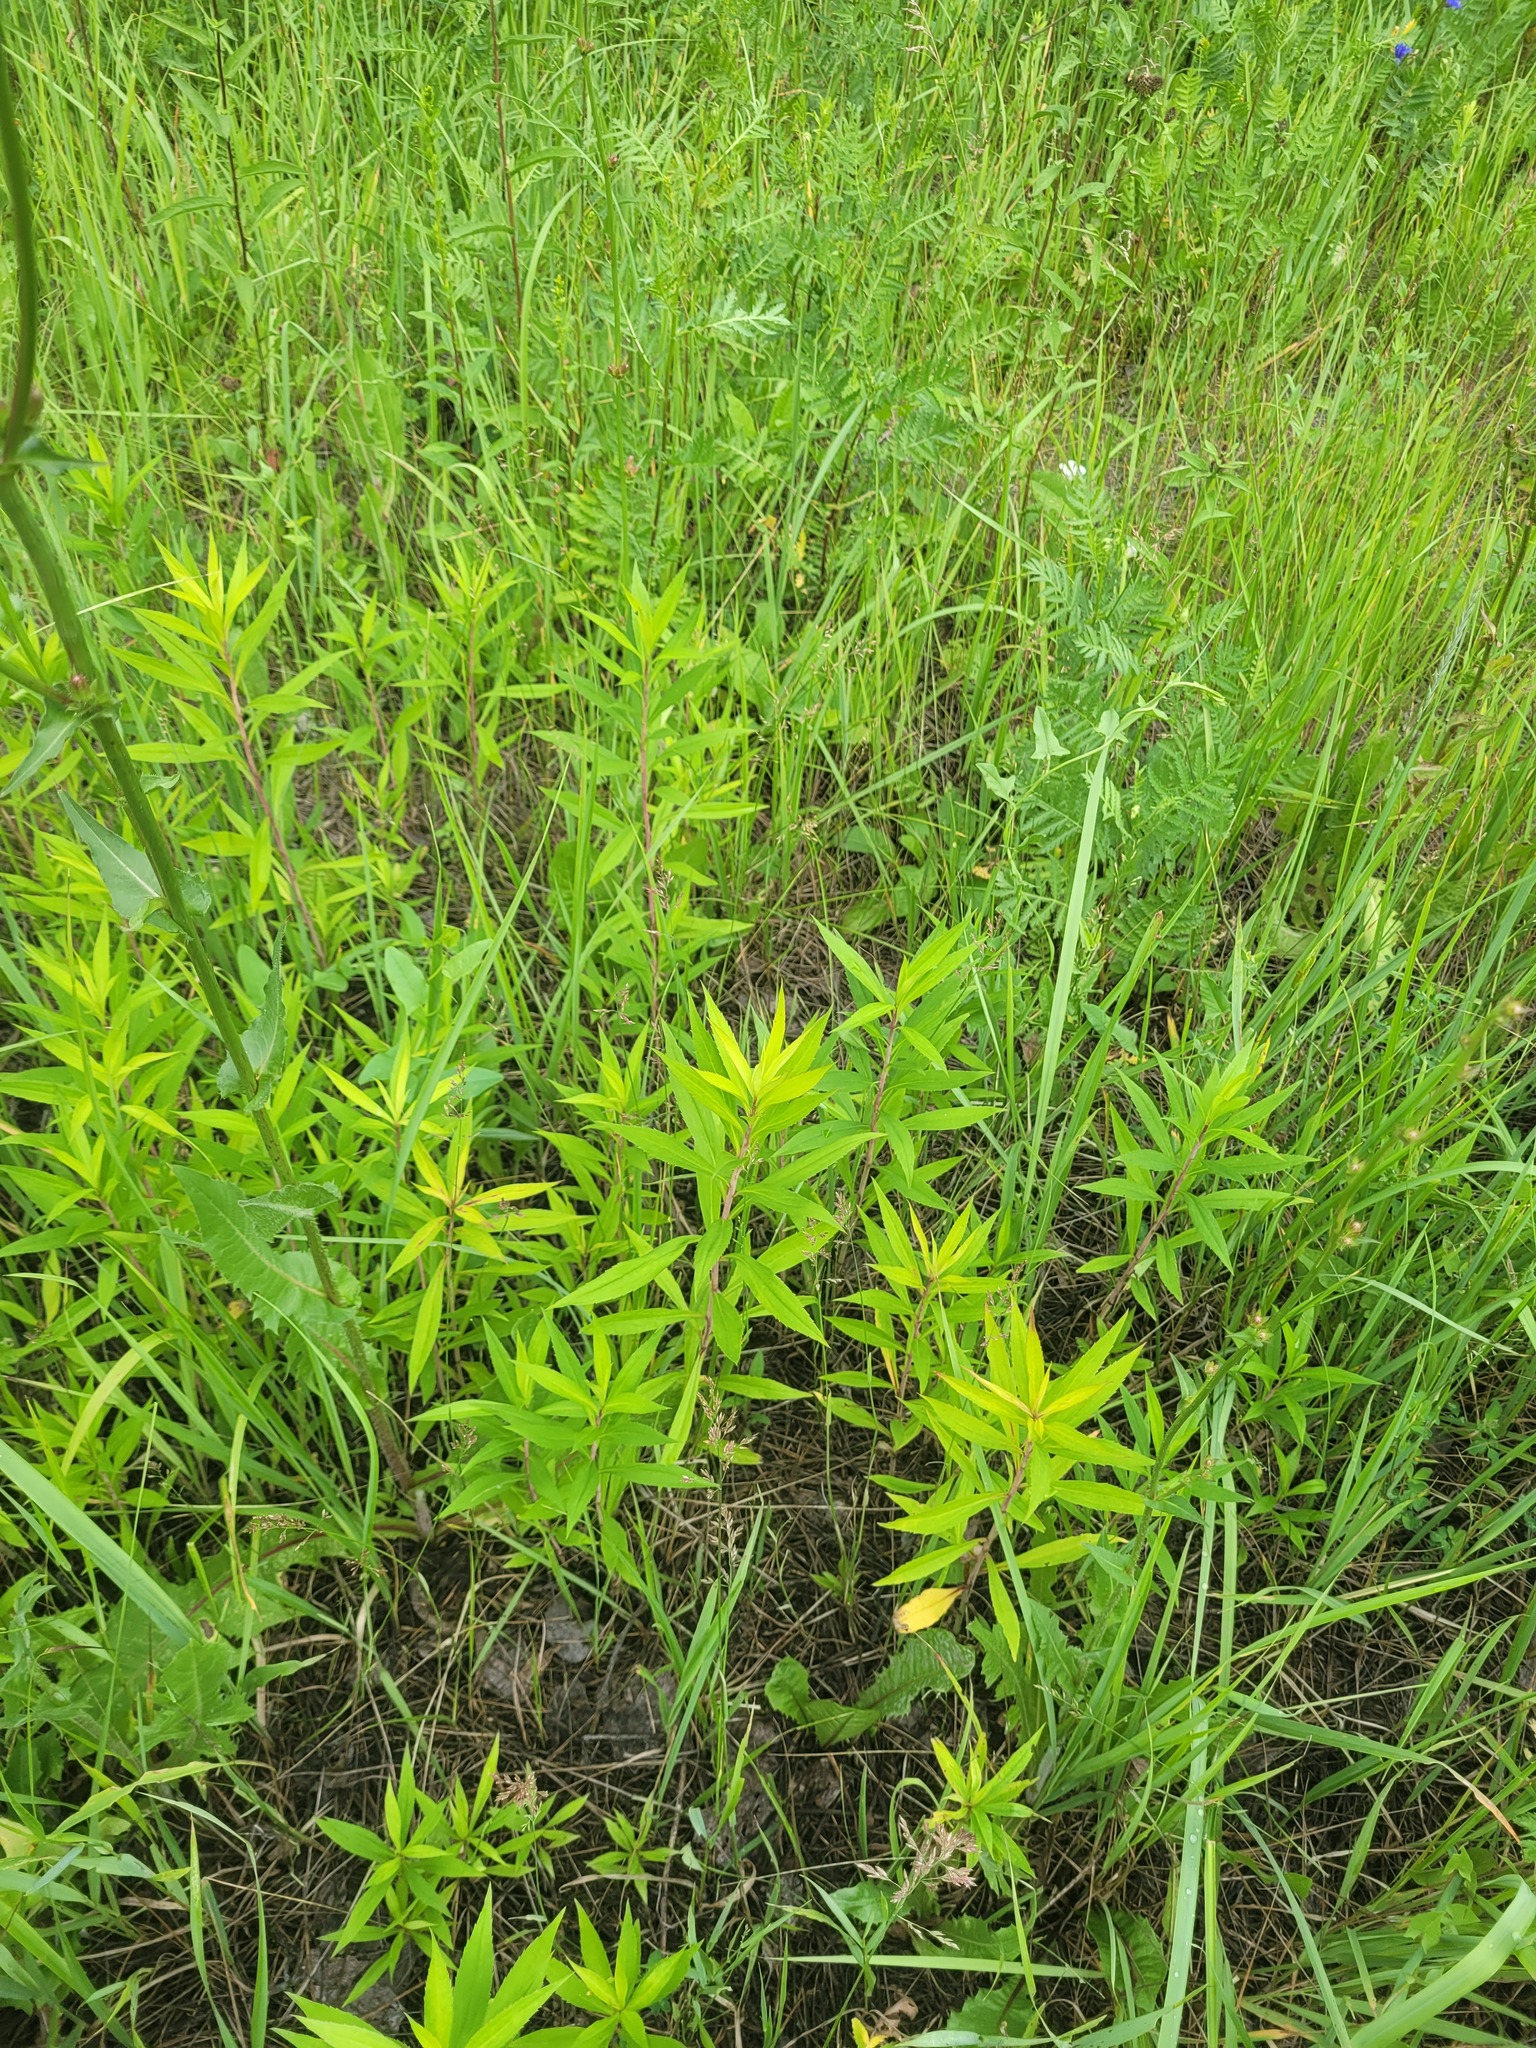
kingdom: Plantae
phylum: Tracheophyta
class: Magnoliopsida
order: Asterales
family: Asteraceae
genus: Solidago
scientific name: Solidago gigantea
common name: Giant goldenrod
